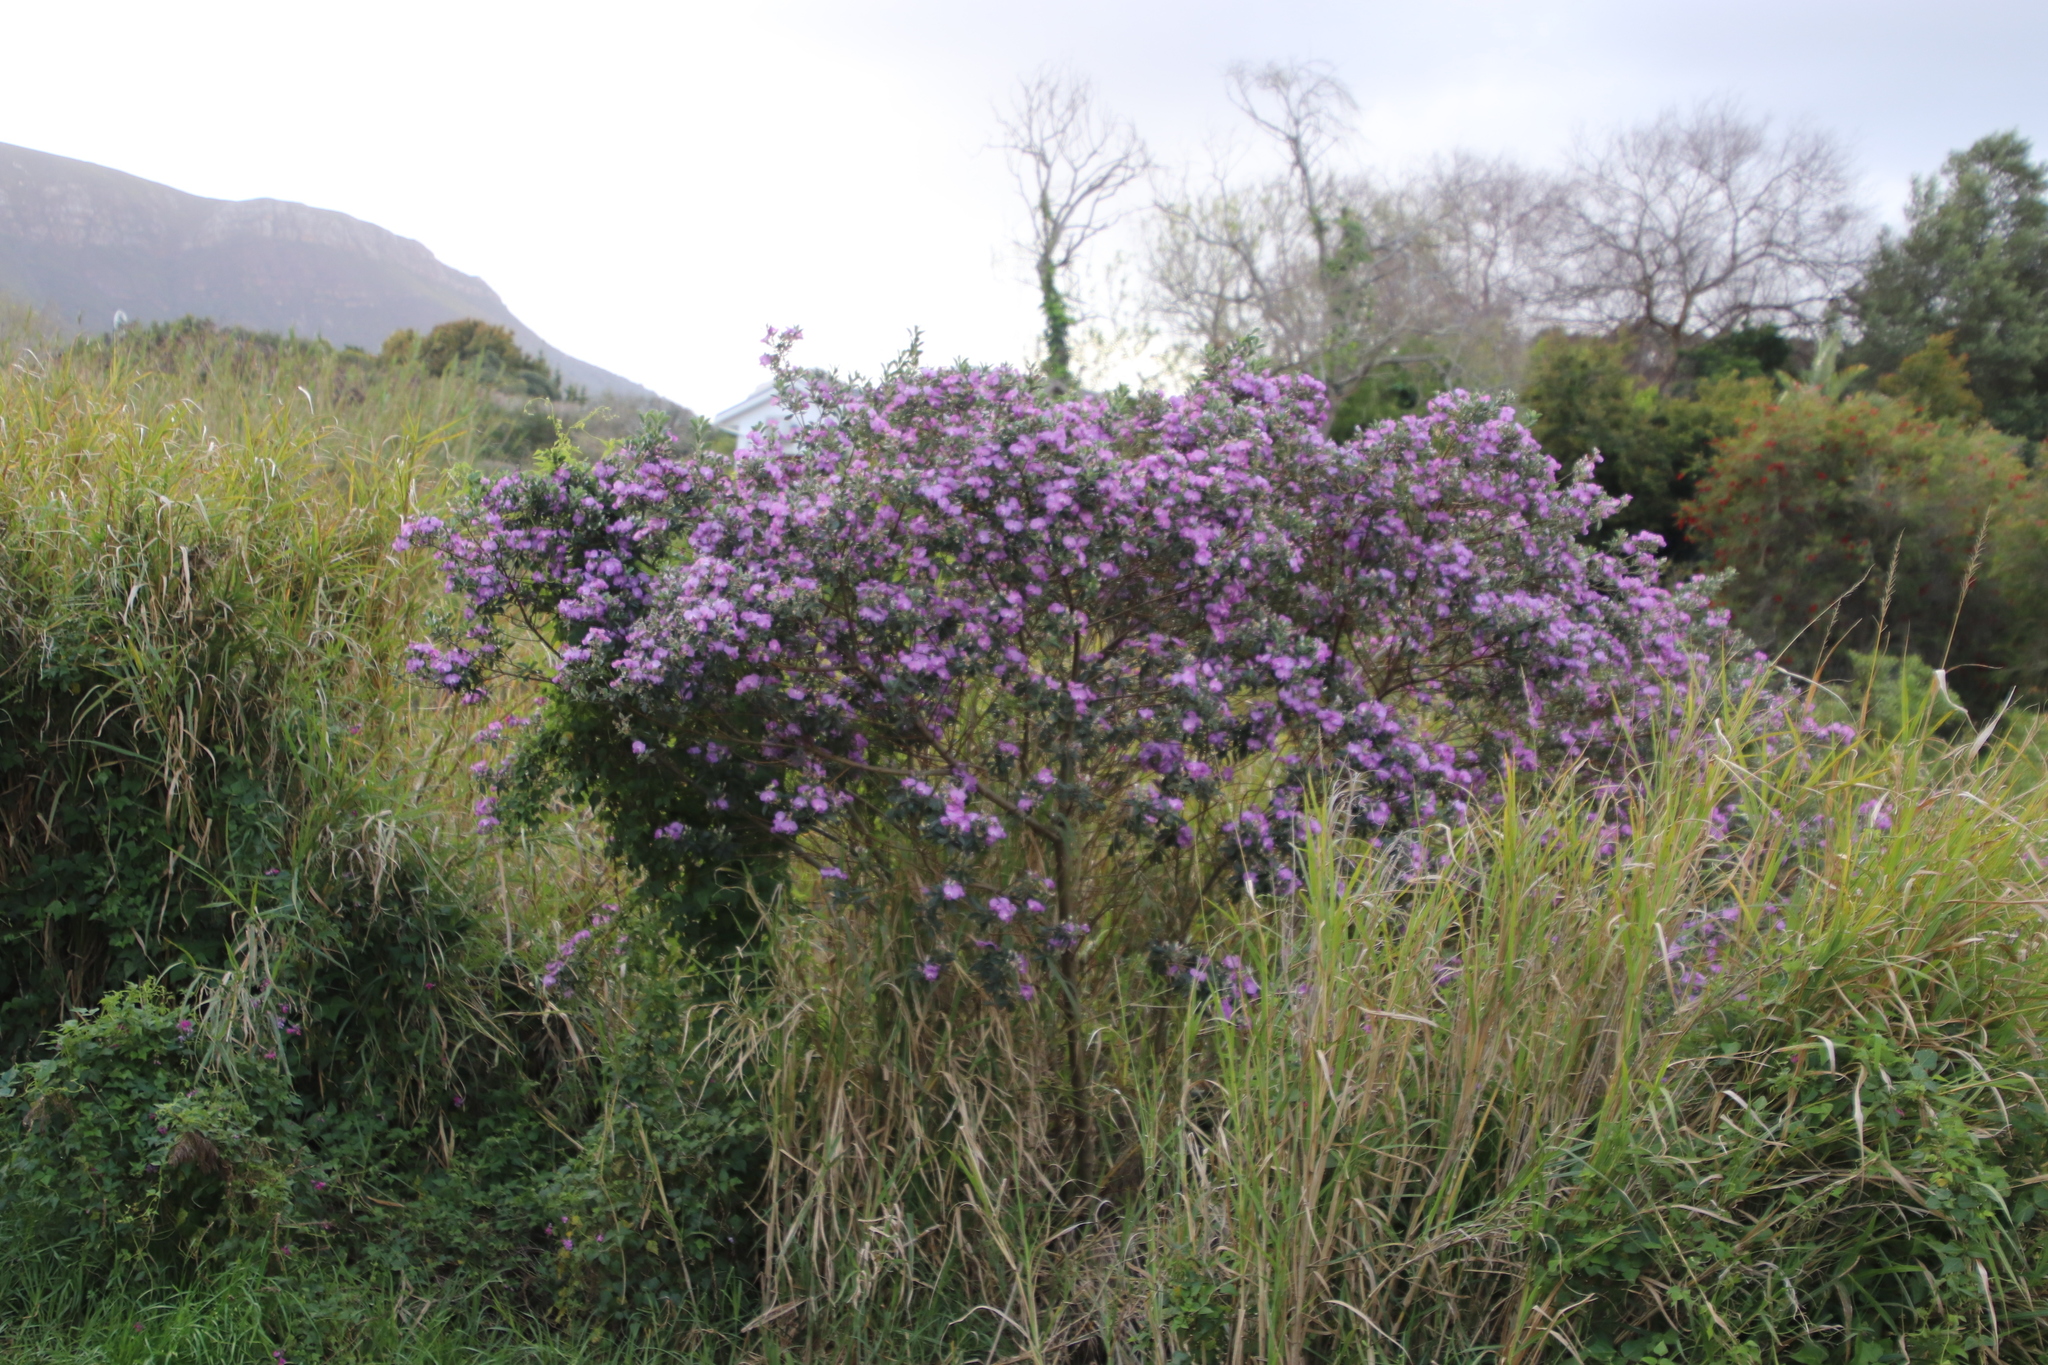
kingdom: Plantae
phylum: Tracheophyta
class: Magnoliopsida
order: Fabales
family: Fabaceae
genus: Podalyria
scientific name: Podalyria calyptrata
